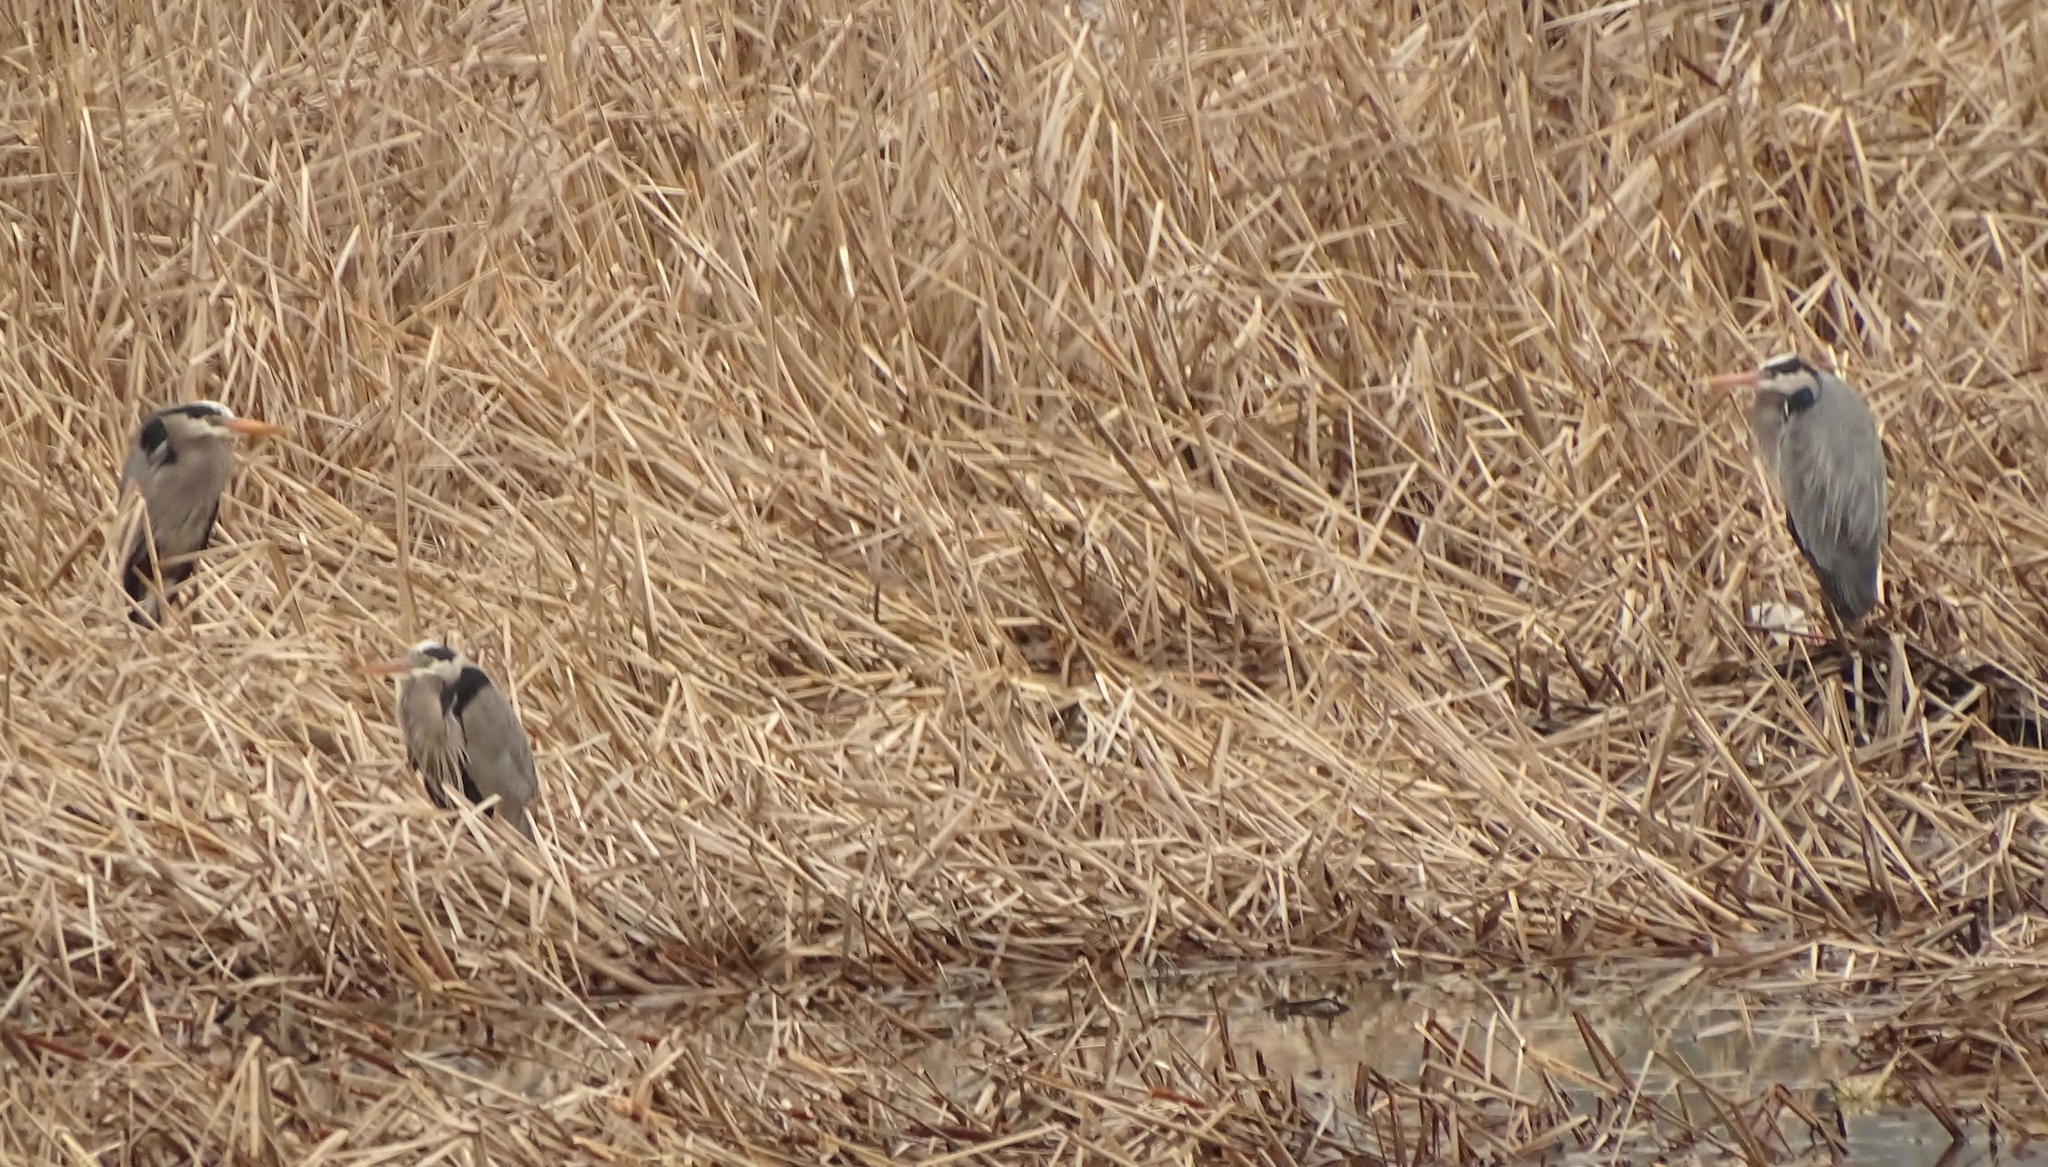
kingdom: Animalia
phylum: Chordata
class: Aves
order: Pelecaniformes
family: Ardeidae
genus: Ardea
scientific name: Ardea herodias
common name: Great blue heron
